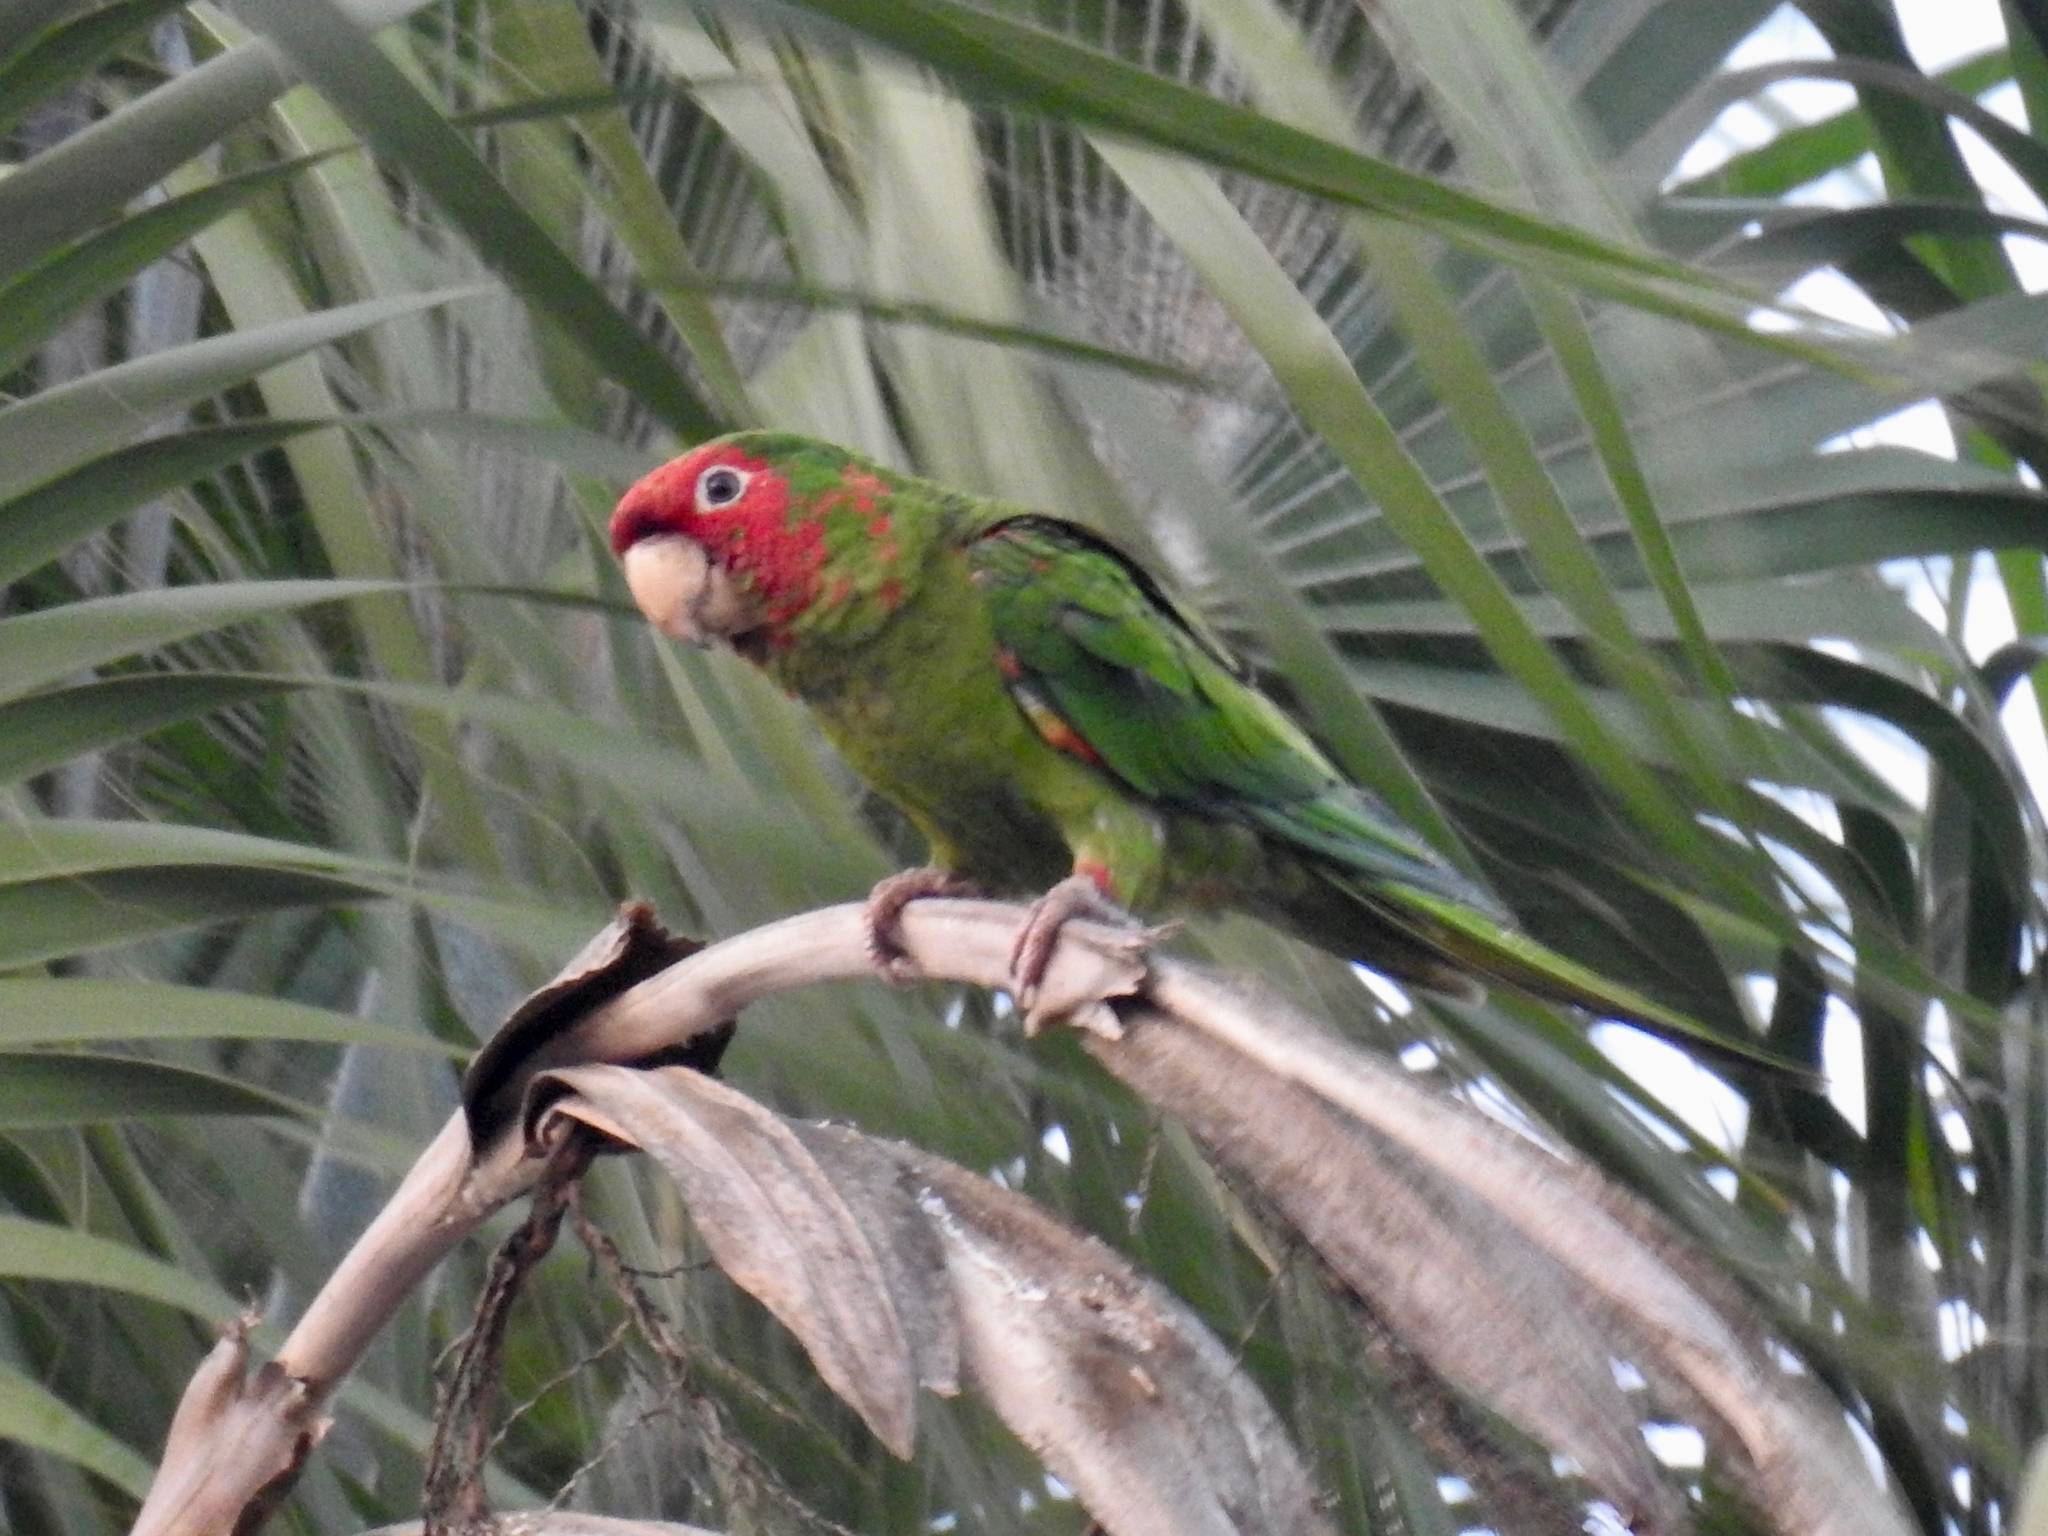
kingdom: Animalia
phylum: Chordata
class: Aves
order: Psittaciformes
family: Psittacidae
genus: Aratinga
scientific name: Aratinga mitrata
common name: Mitred parakeet
